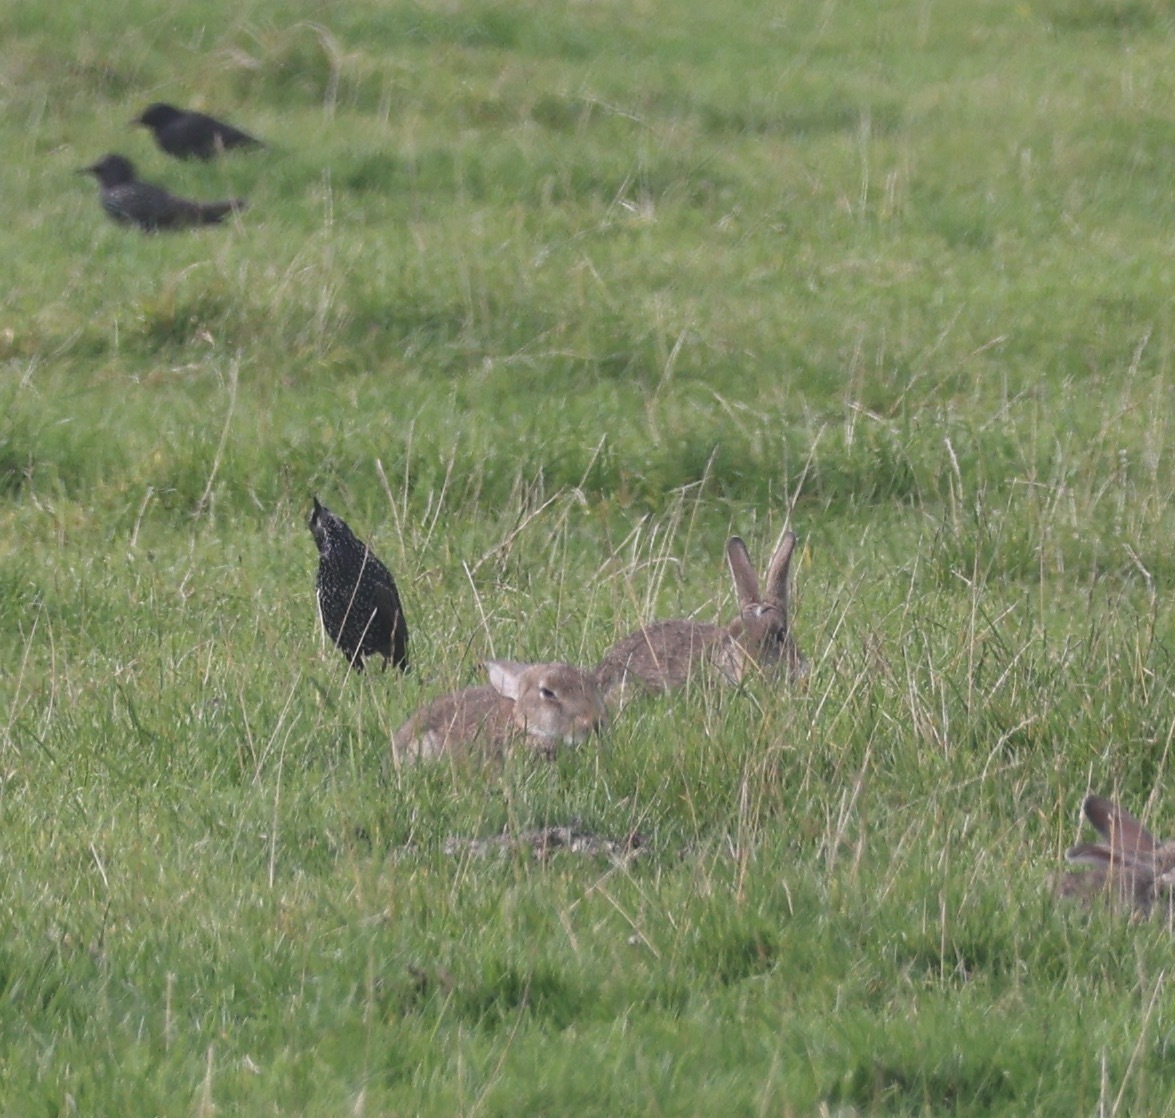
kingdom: Animalia
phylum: Chordata
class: Mammalia
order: Lagomorpha
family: Leporidae
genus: Oryctolagus
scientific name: Oryctolagus cuniculus
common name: European rabbit
